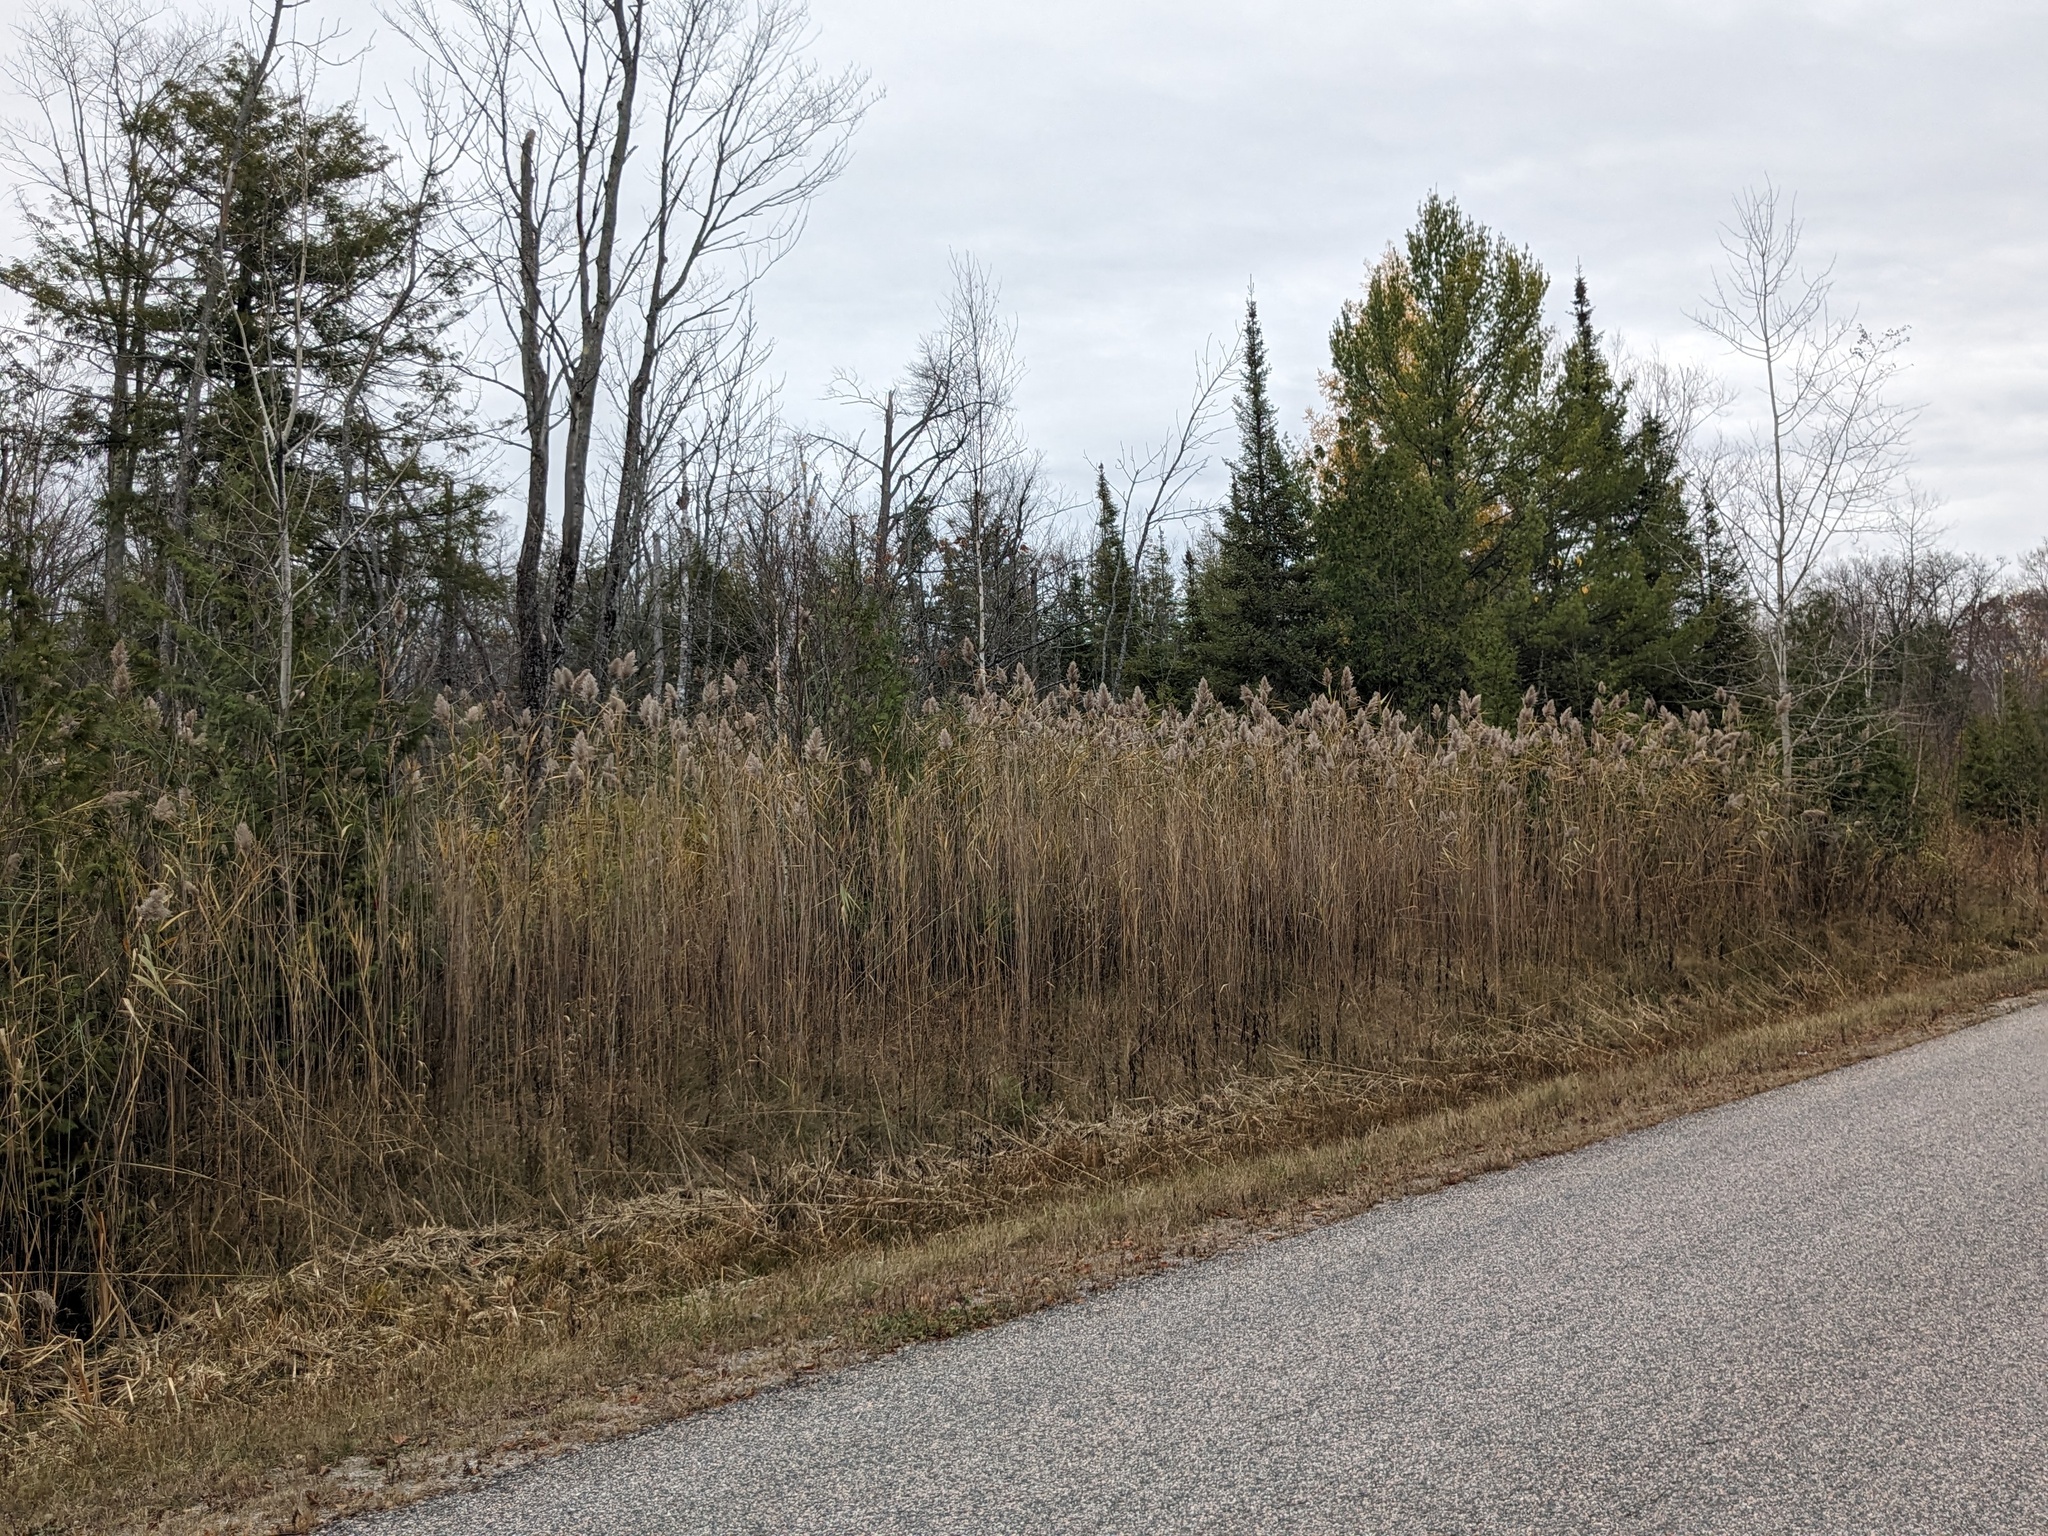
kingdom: Plantae
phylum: Tracheophyta
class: Liliopsida
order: Poales
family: Poaceae
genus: Phragmites
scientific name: Phragmites australis
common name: Common reed
